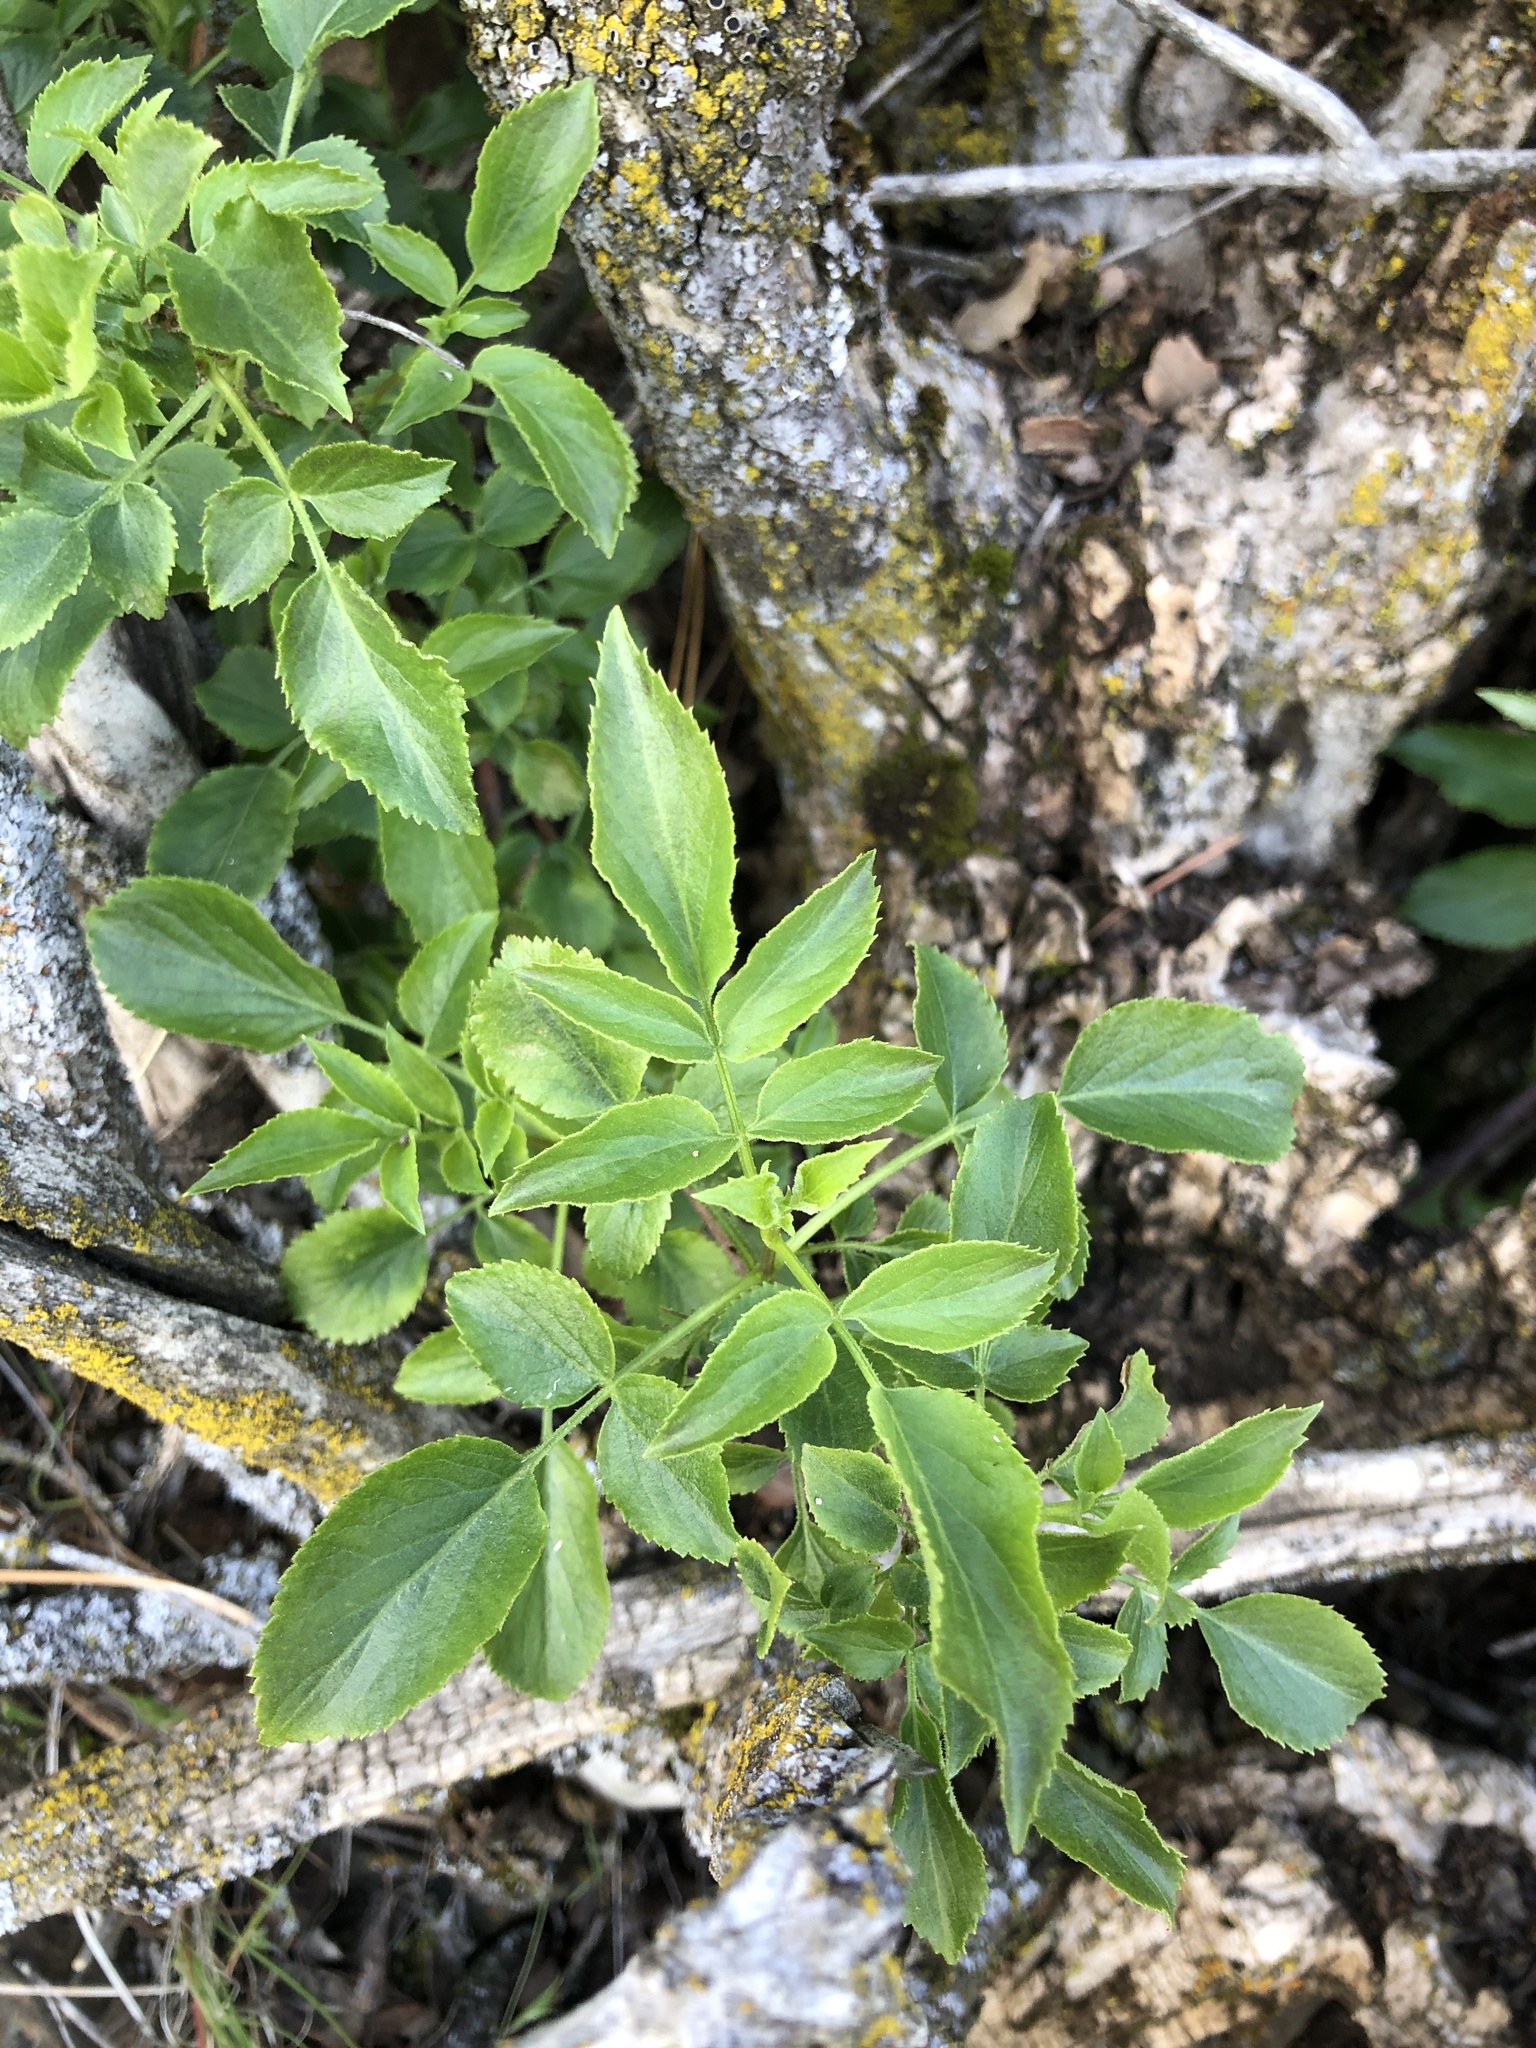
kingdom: Plantae
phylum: Tracheophyta
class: Magnoliopsida
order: Dipsacales
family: Viburnaceae
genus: Sambucus
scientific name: Sambucus cerulea
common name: Blue elder
